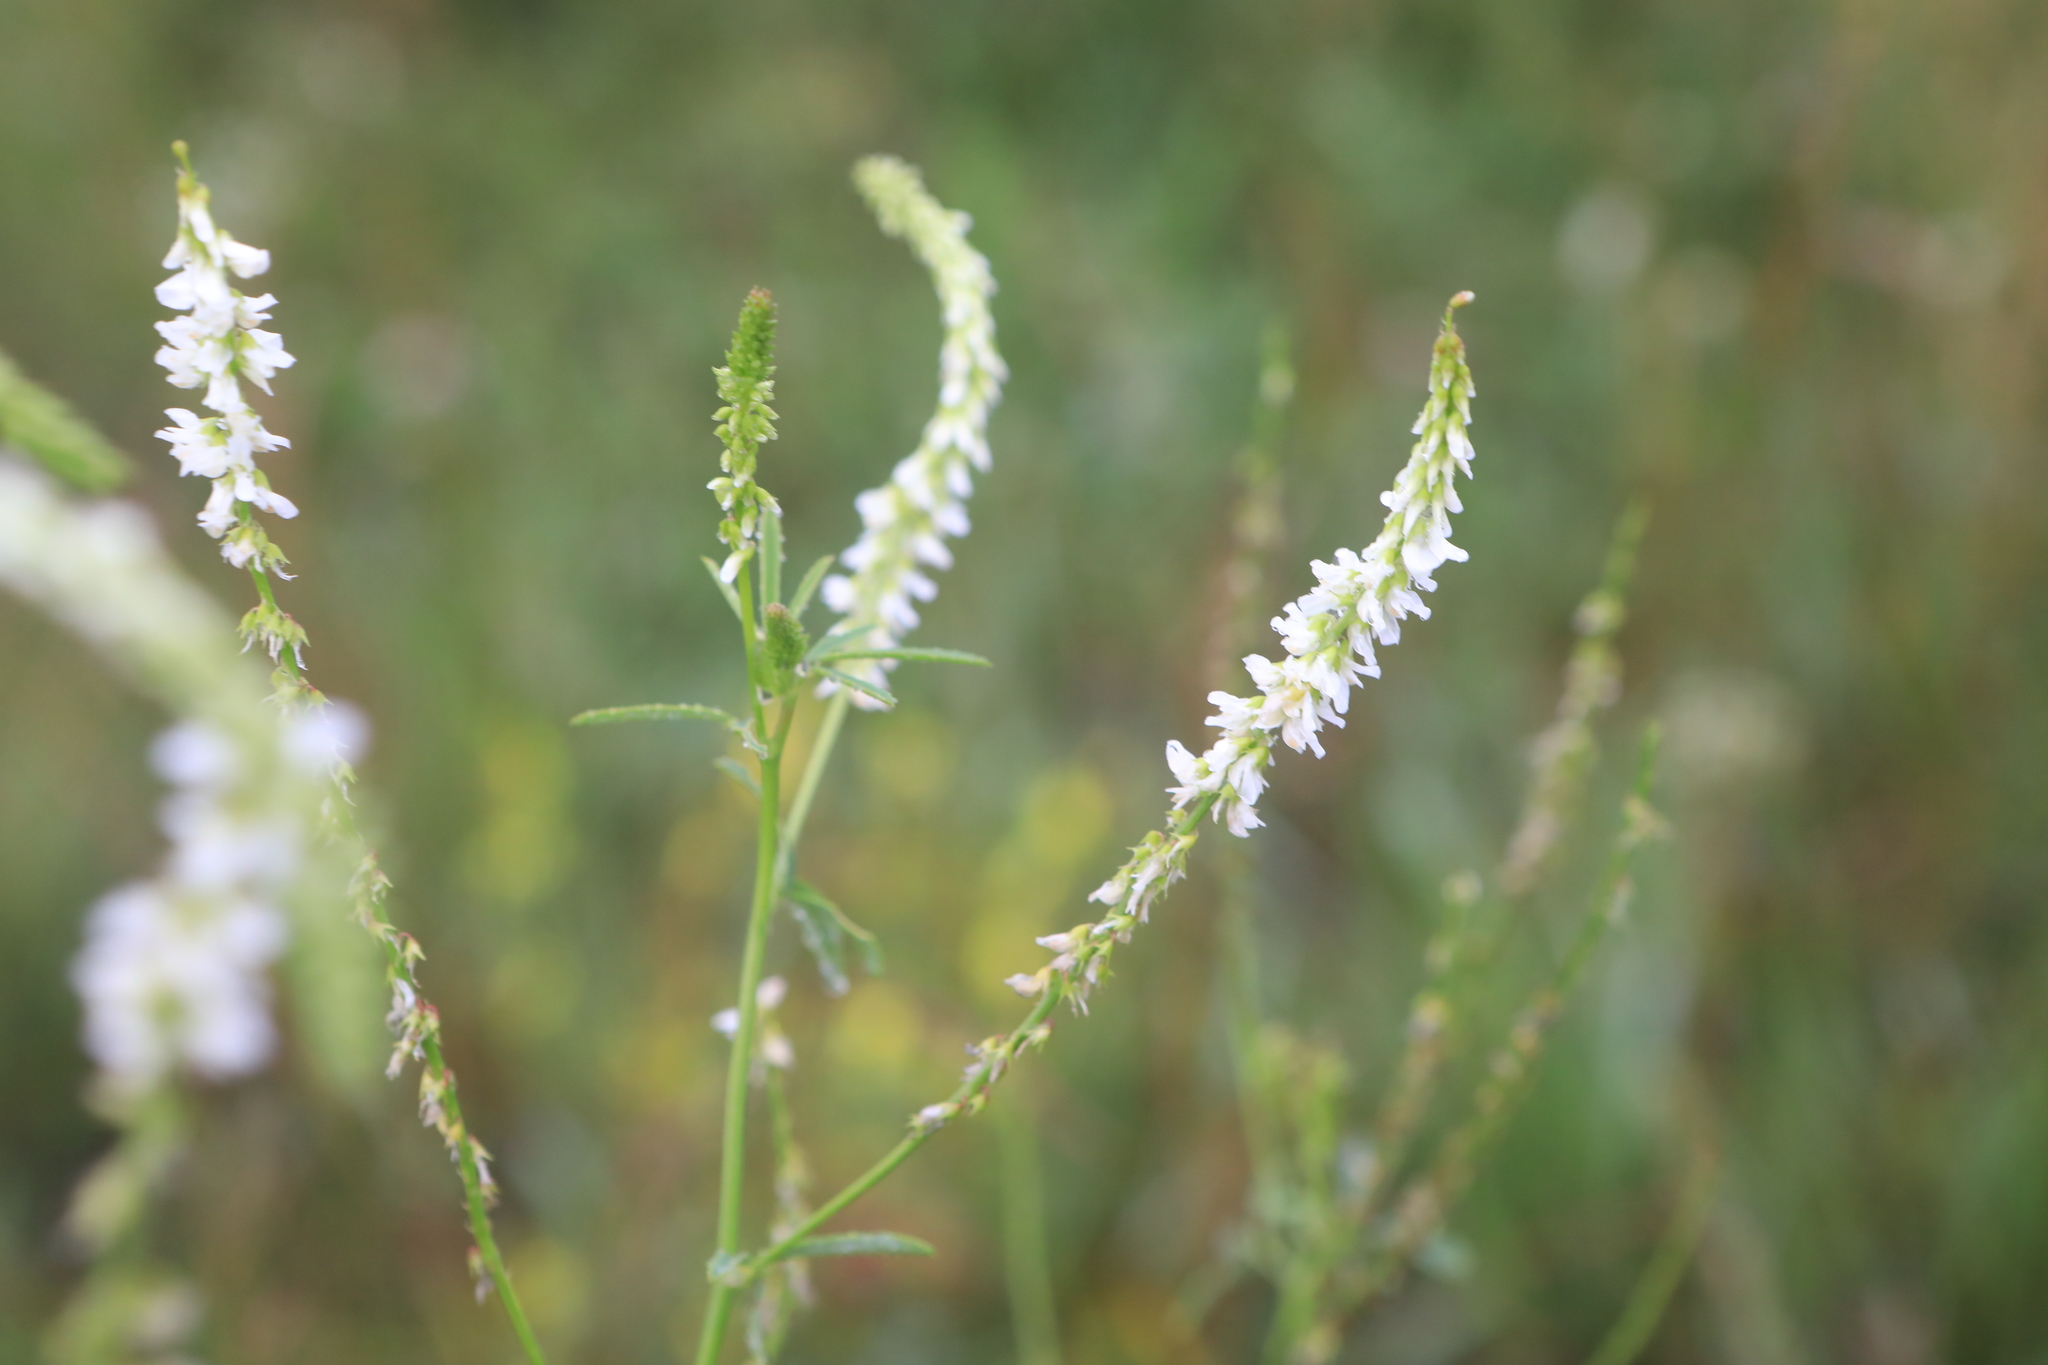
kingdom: Plantae
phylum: Tracheophyta
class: Magnoliopsida
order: Fabales
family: Fabaceae
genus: Melilotus
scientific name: Melilotus albus
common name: White melilot
